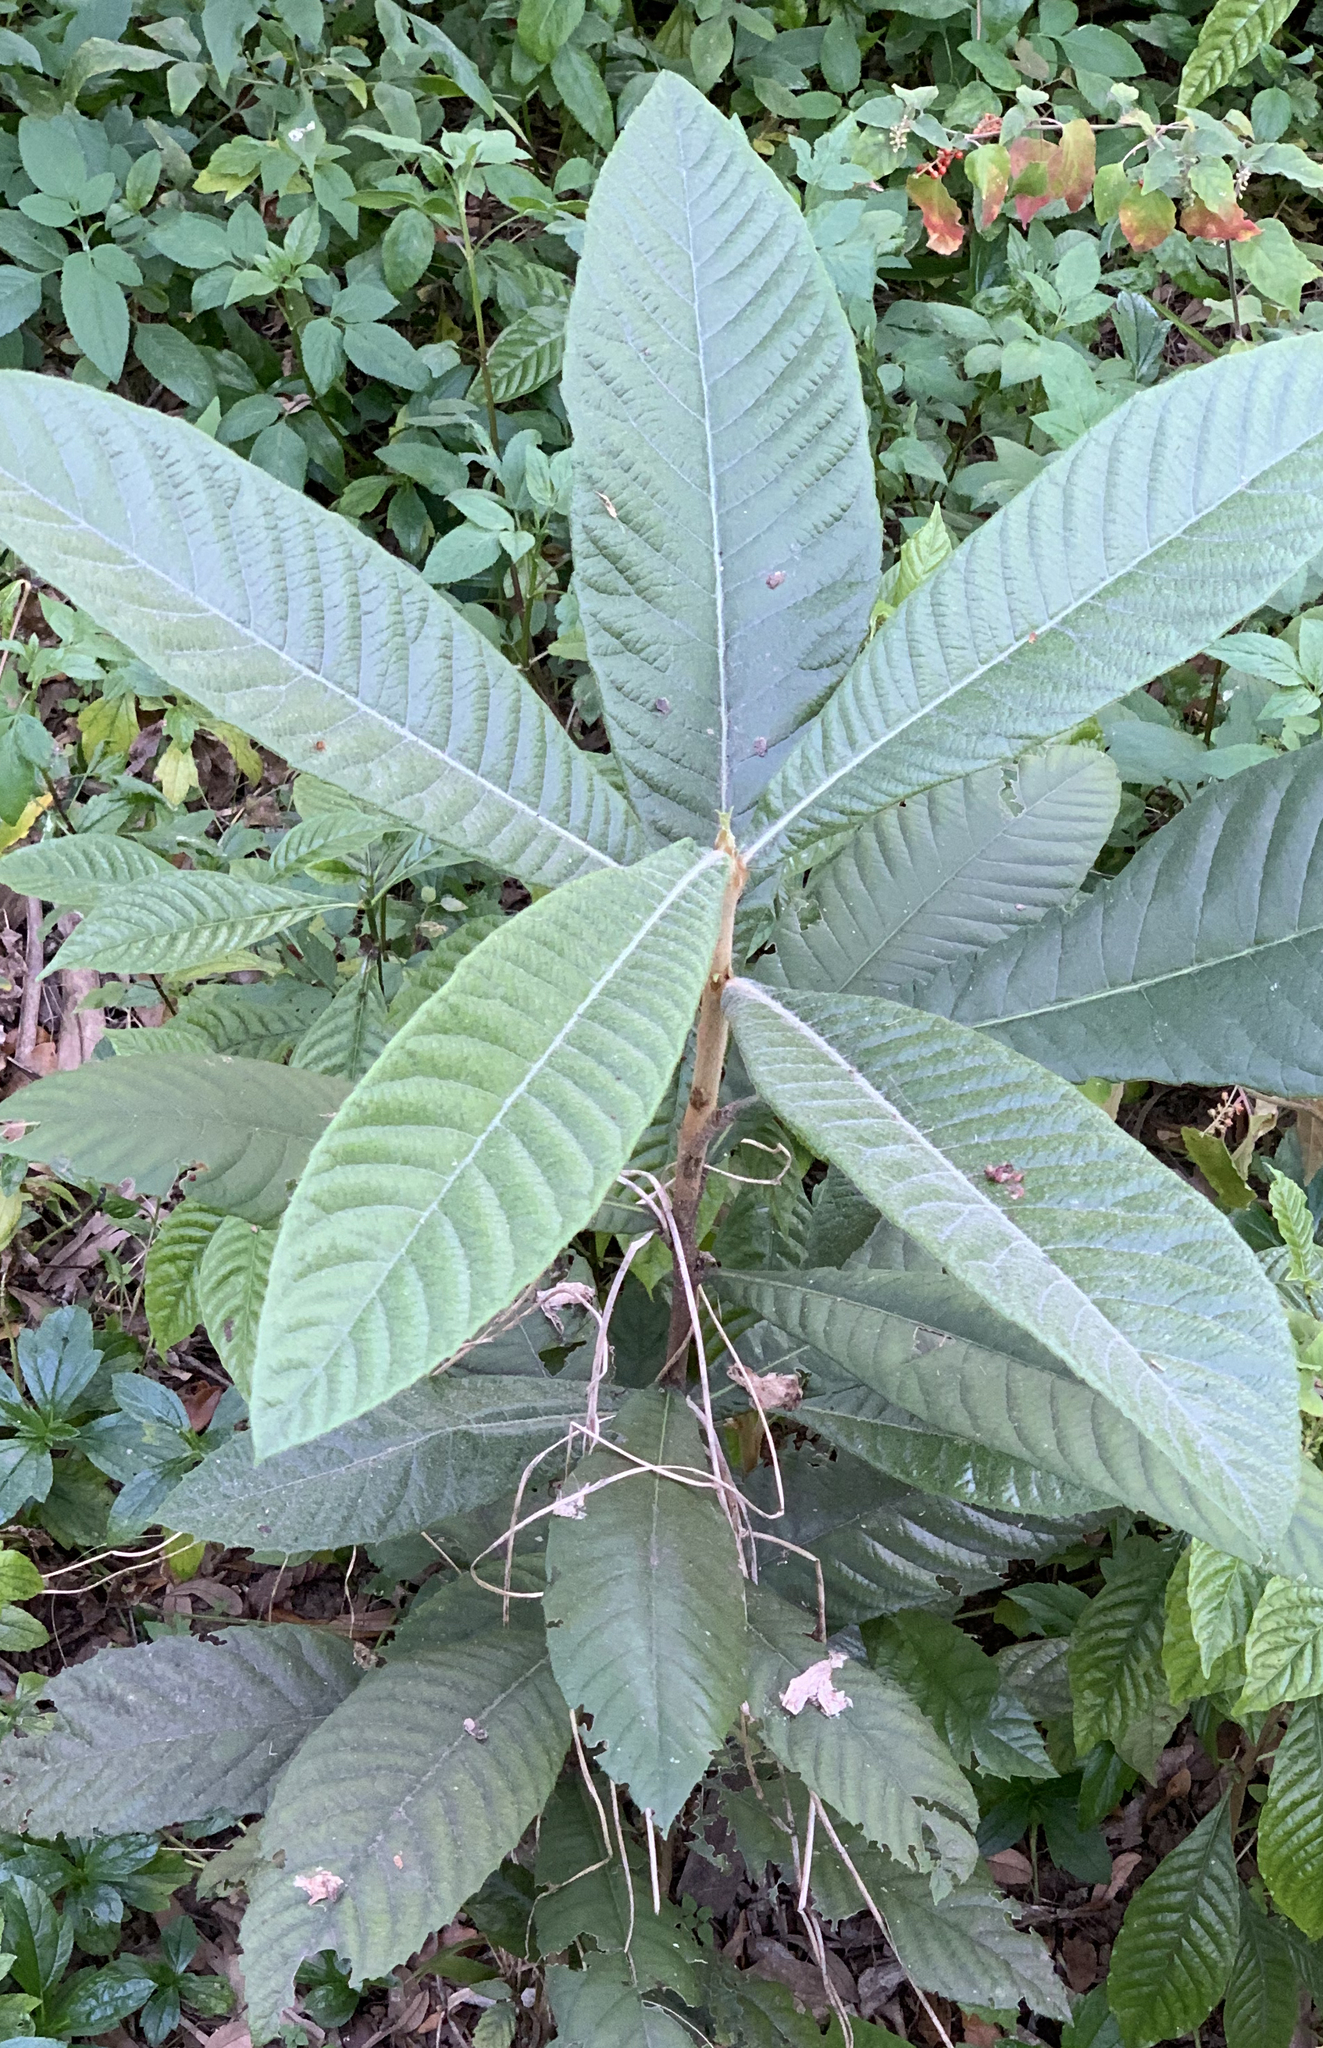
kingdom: Plantae
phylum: Tracheophyta
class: Magnoliopsida
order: Rosales
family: Rosaceae
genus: Rhaphiolepis
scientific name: Rhaphiolepis bibas
